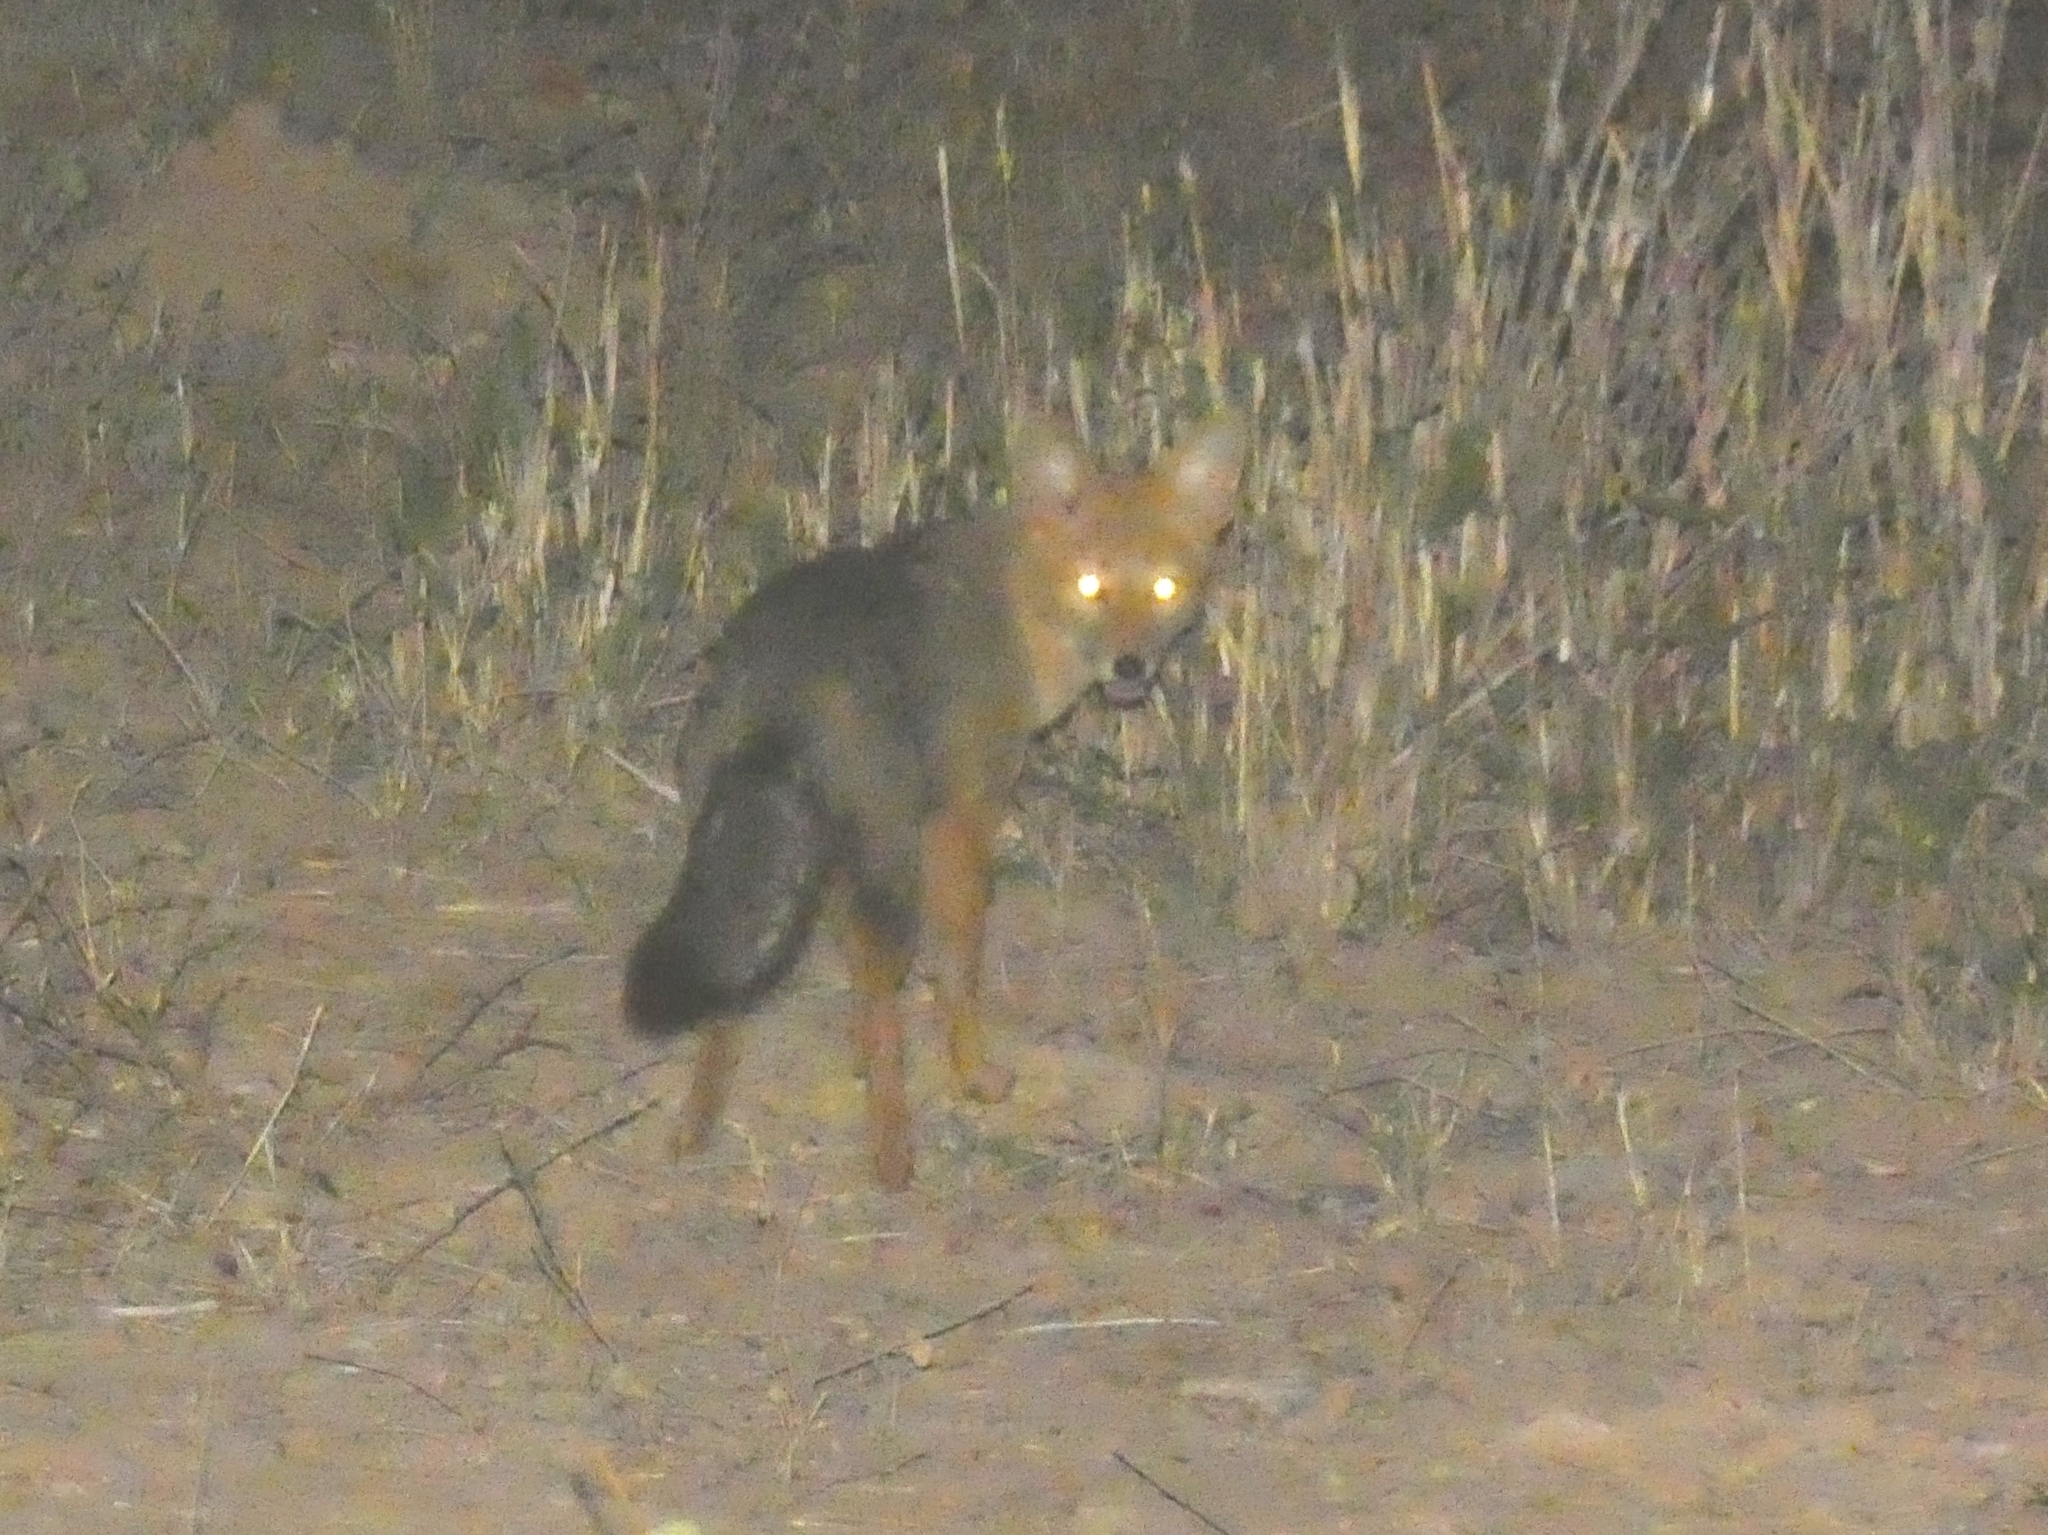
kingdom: Animalia
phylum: Chordata
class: Mammalia
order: Carnivora
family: Canidae
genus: Lycalopex
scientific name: Lycalopex gymnocercus
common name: Pampas fox
